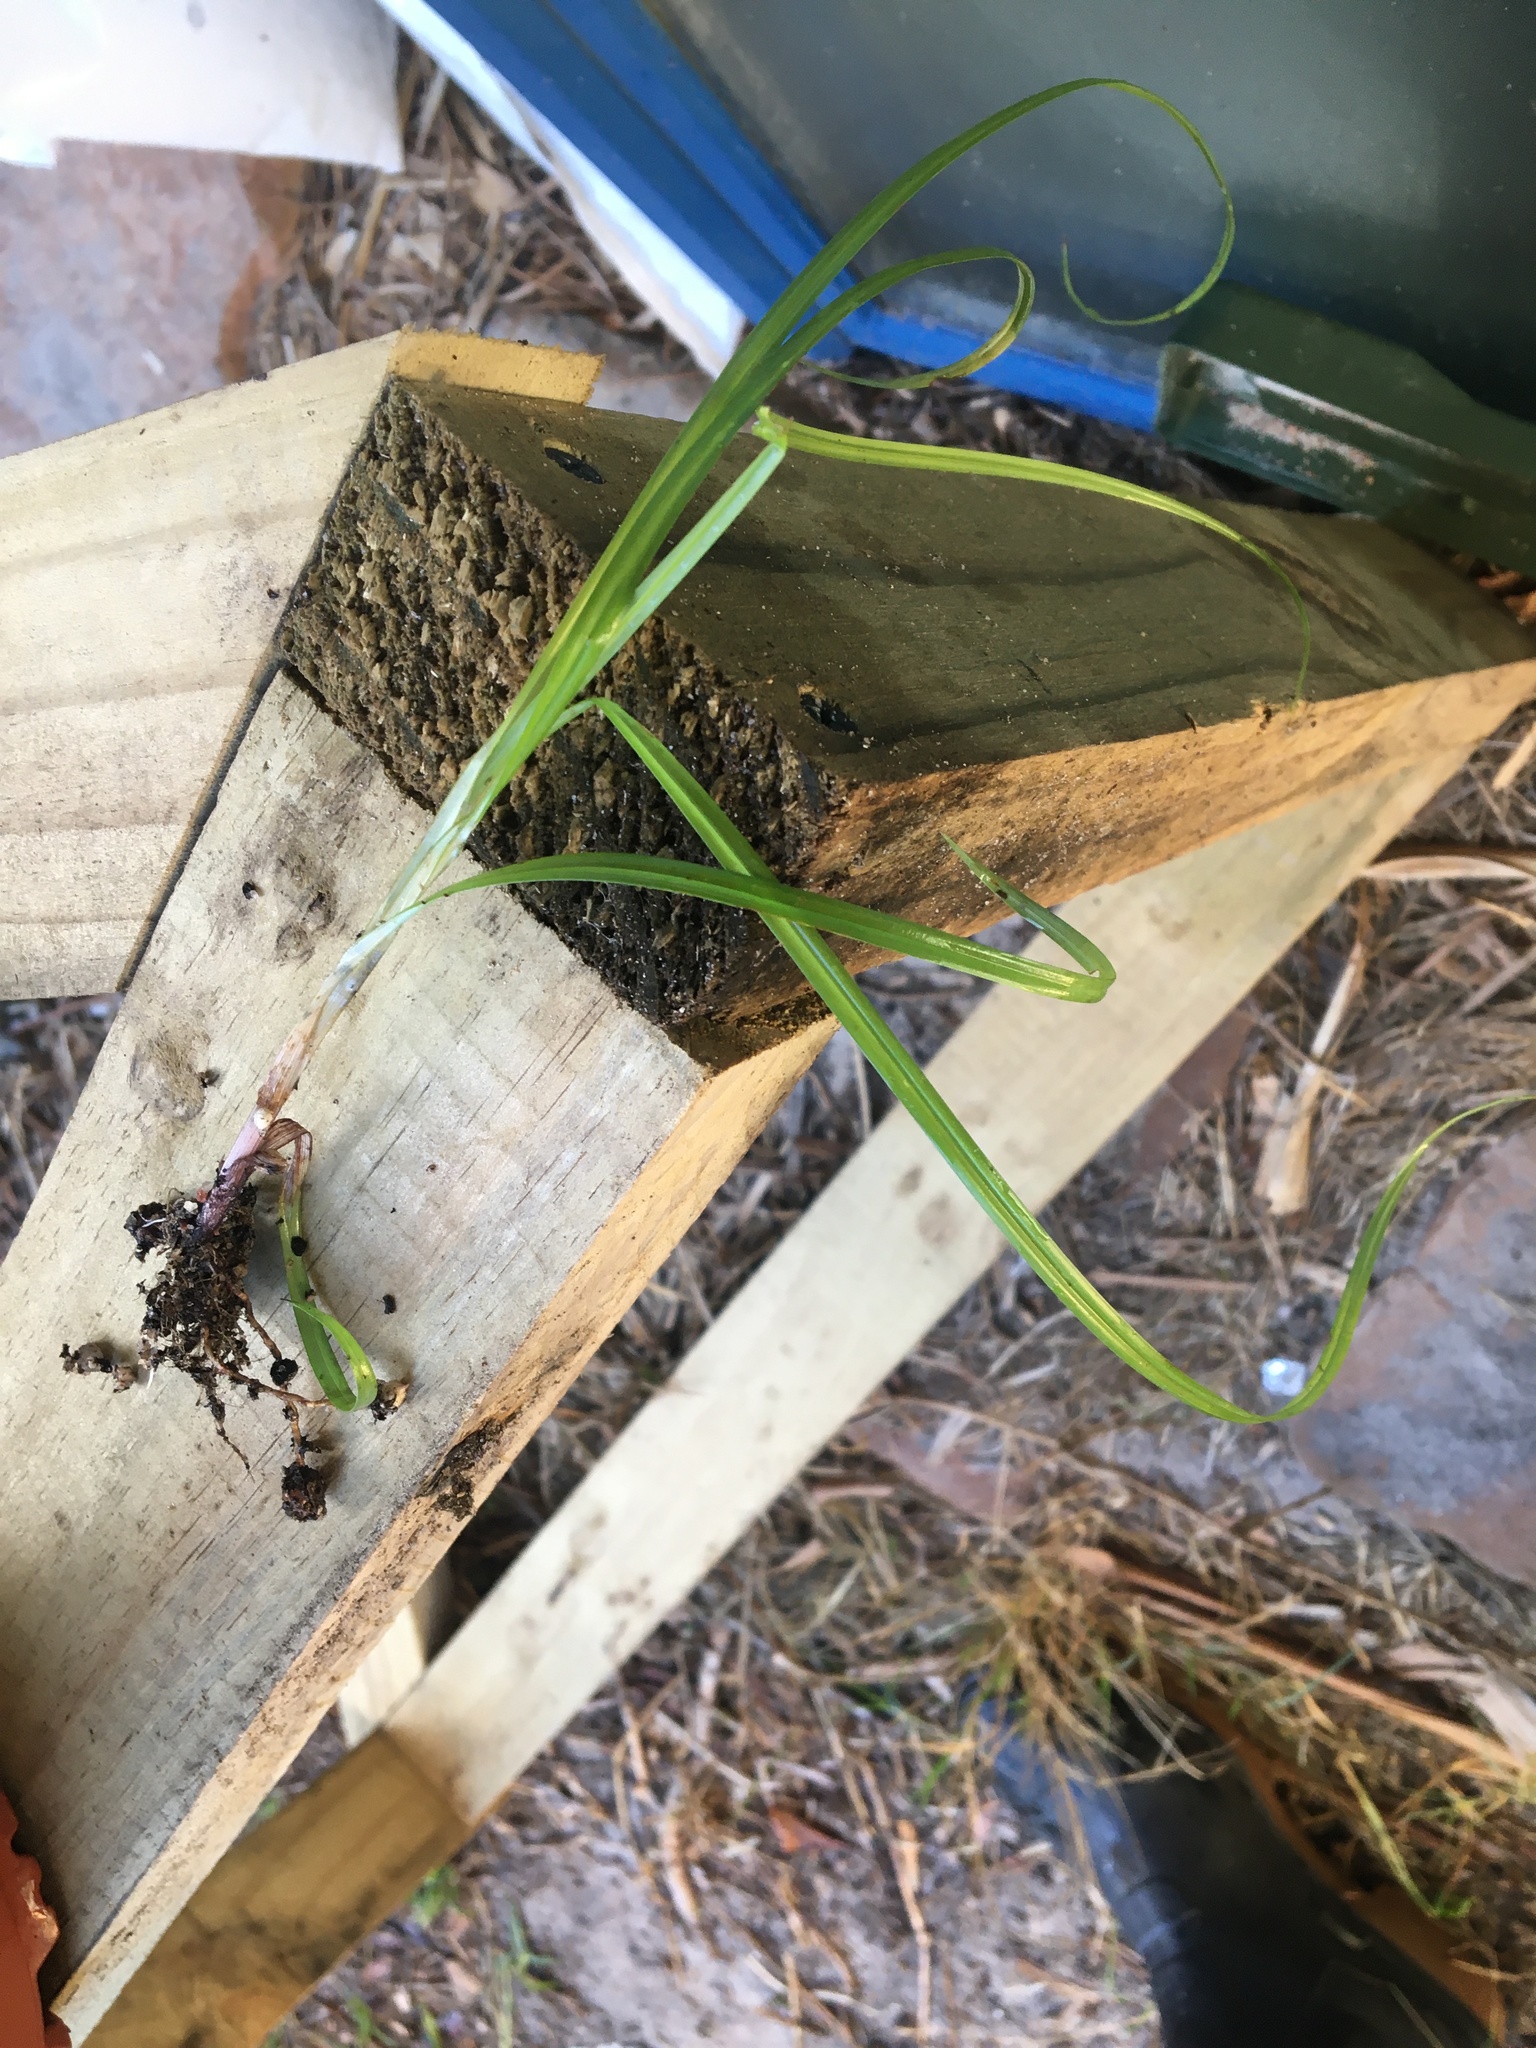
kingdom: Plantae
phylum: Tracheophyta
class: Liliopsida
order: Poales
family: Cyperaceae
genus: Cyperus
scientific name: Cyperus esculentus
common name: Yellow nutsedge
